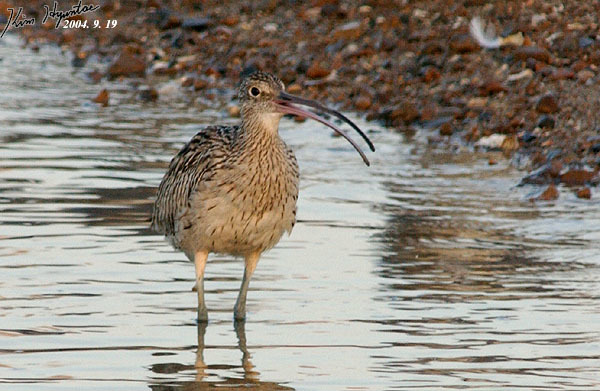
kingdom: Animalia
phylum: Chordata
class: Aves
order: Charadriiformes
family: Scolopacidae
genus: Numenius
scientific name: Numenius madagascariensis
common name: Far eastern curlew
